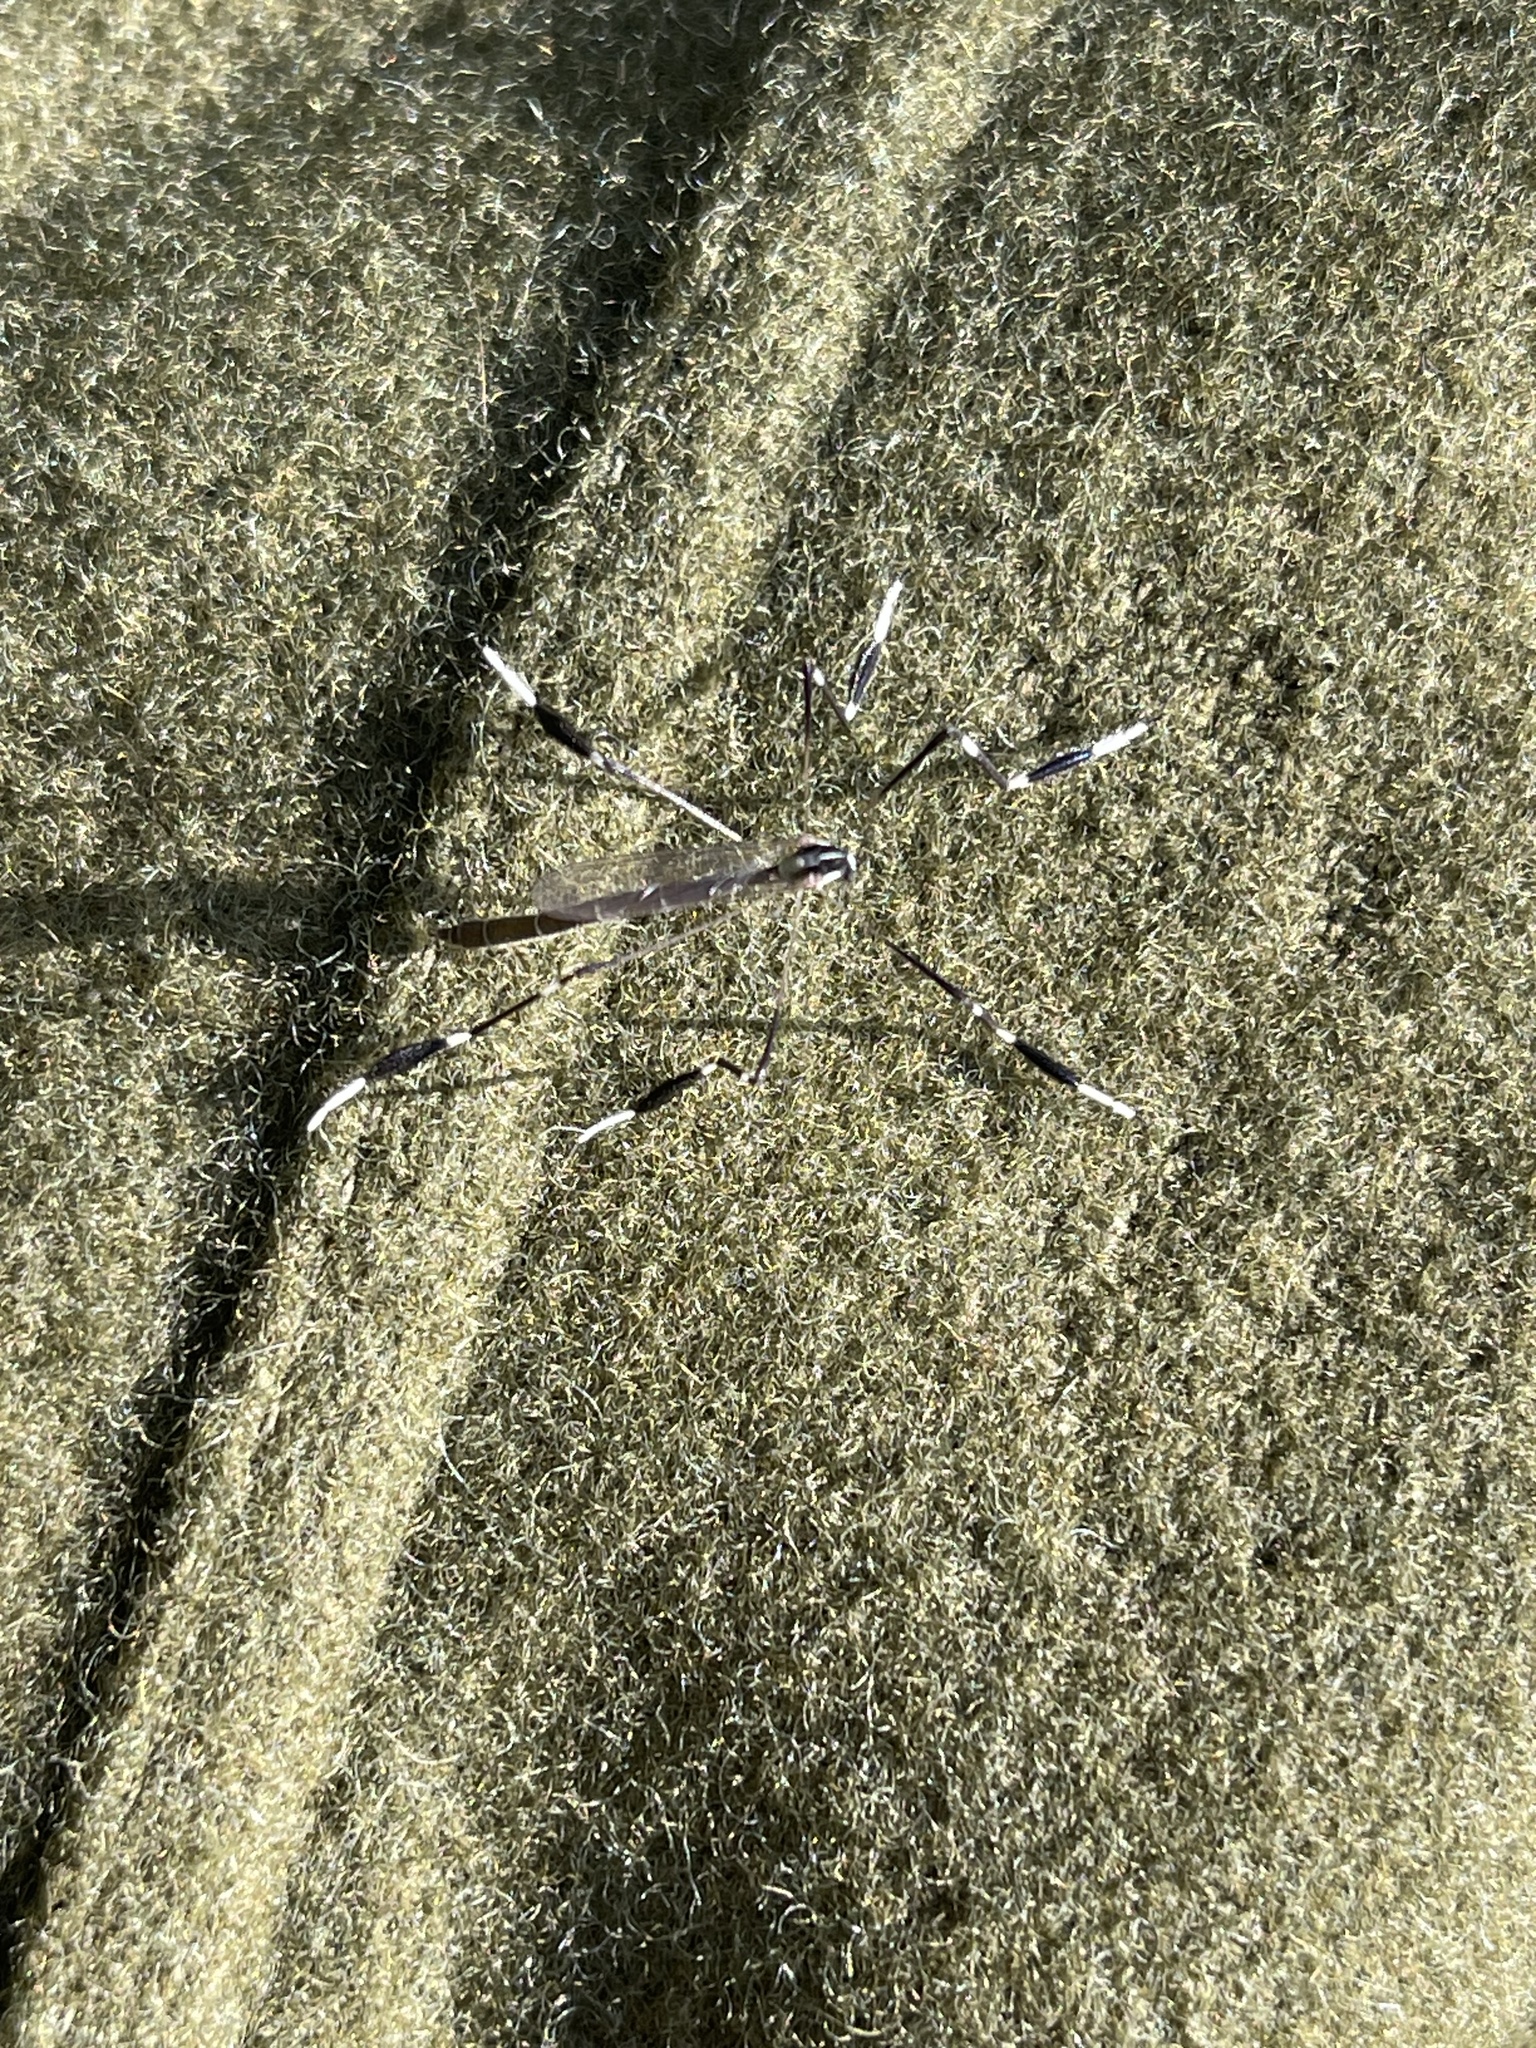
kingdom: Animalia
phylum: Arthropoda
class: Insecta
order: Diptera
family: Ptychopteridae
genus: Bittacomorpha
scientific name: Bittacomorpha clavipes
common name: Eastern phantom crane fly
